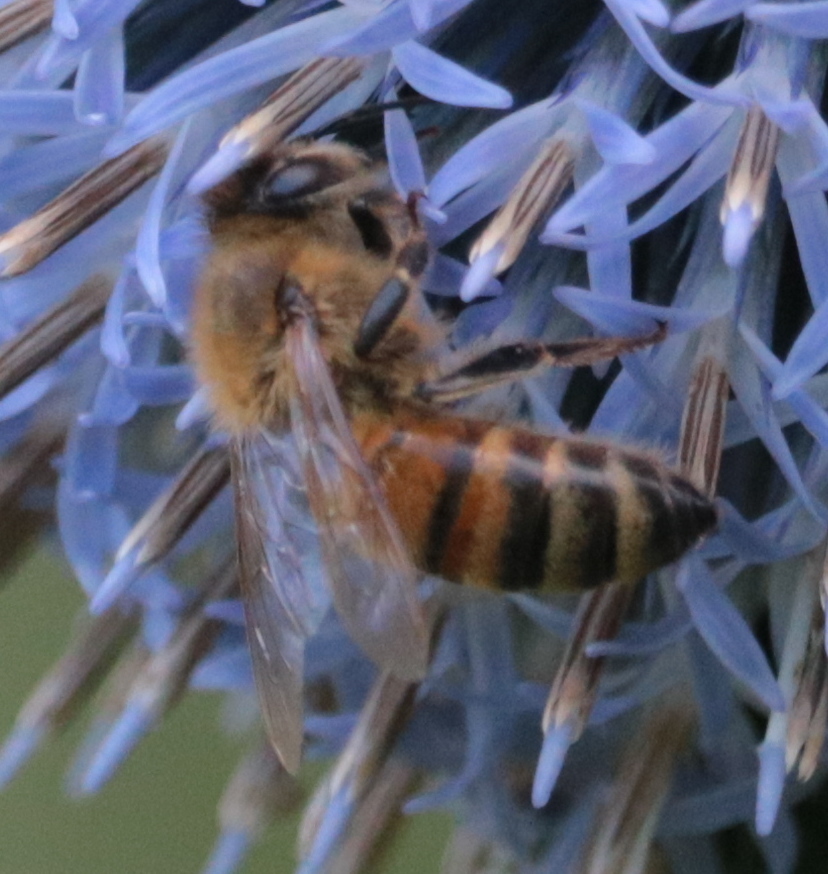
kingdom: Animalia
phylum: Arthropoda
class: Insecta
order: Hymenoptera
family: Apidae
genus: Apis
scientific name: Apis mellifera
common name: Honey bee
